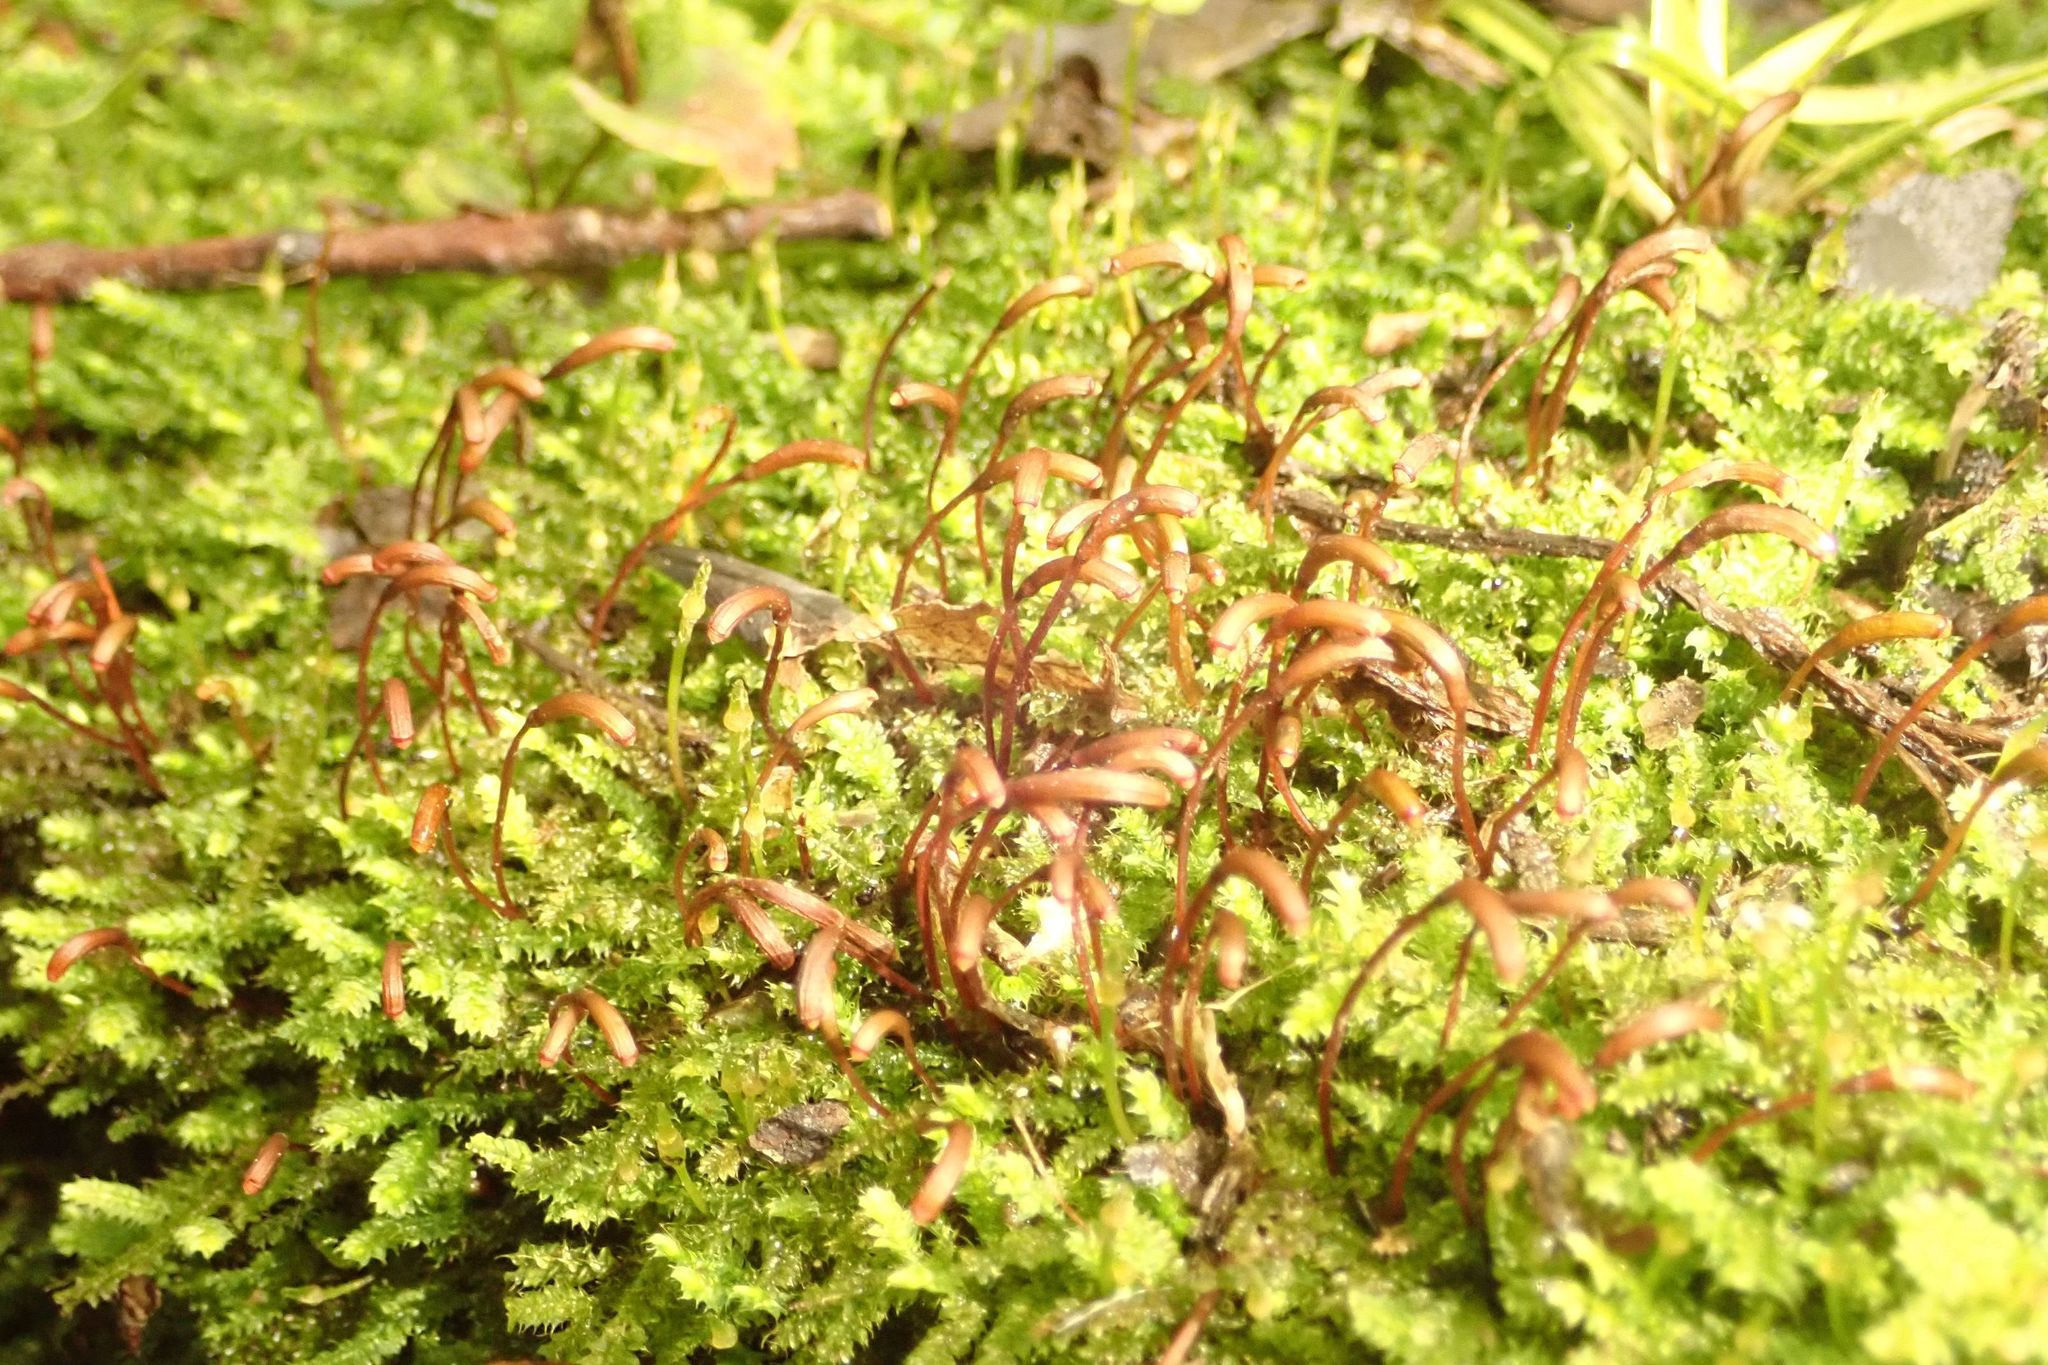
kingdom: Plantae
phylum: Bryophyta
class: Bryopsida
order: Hypnodendrales
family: Racopilaceae
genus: Racopilum
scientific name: Racopilum strumiferum
